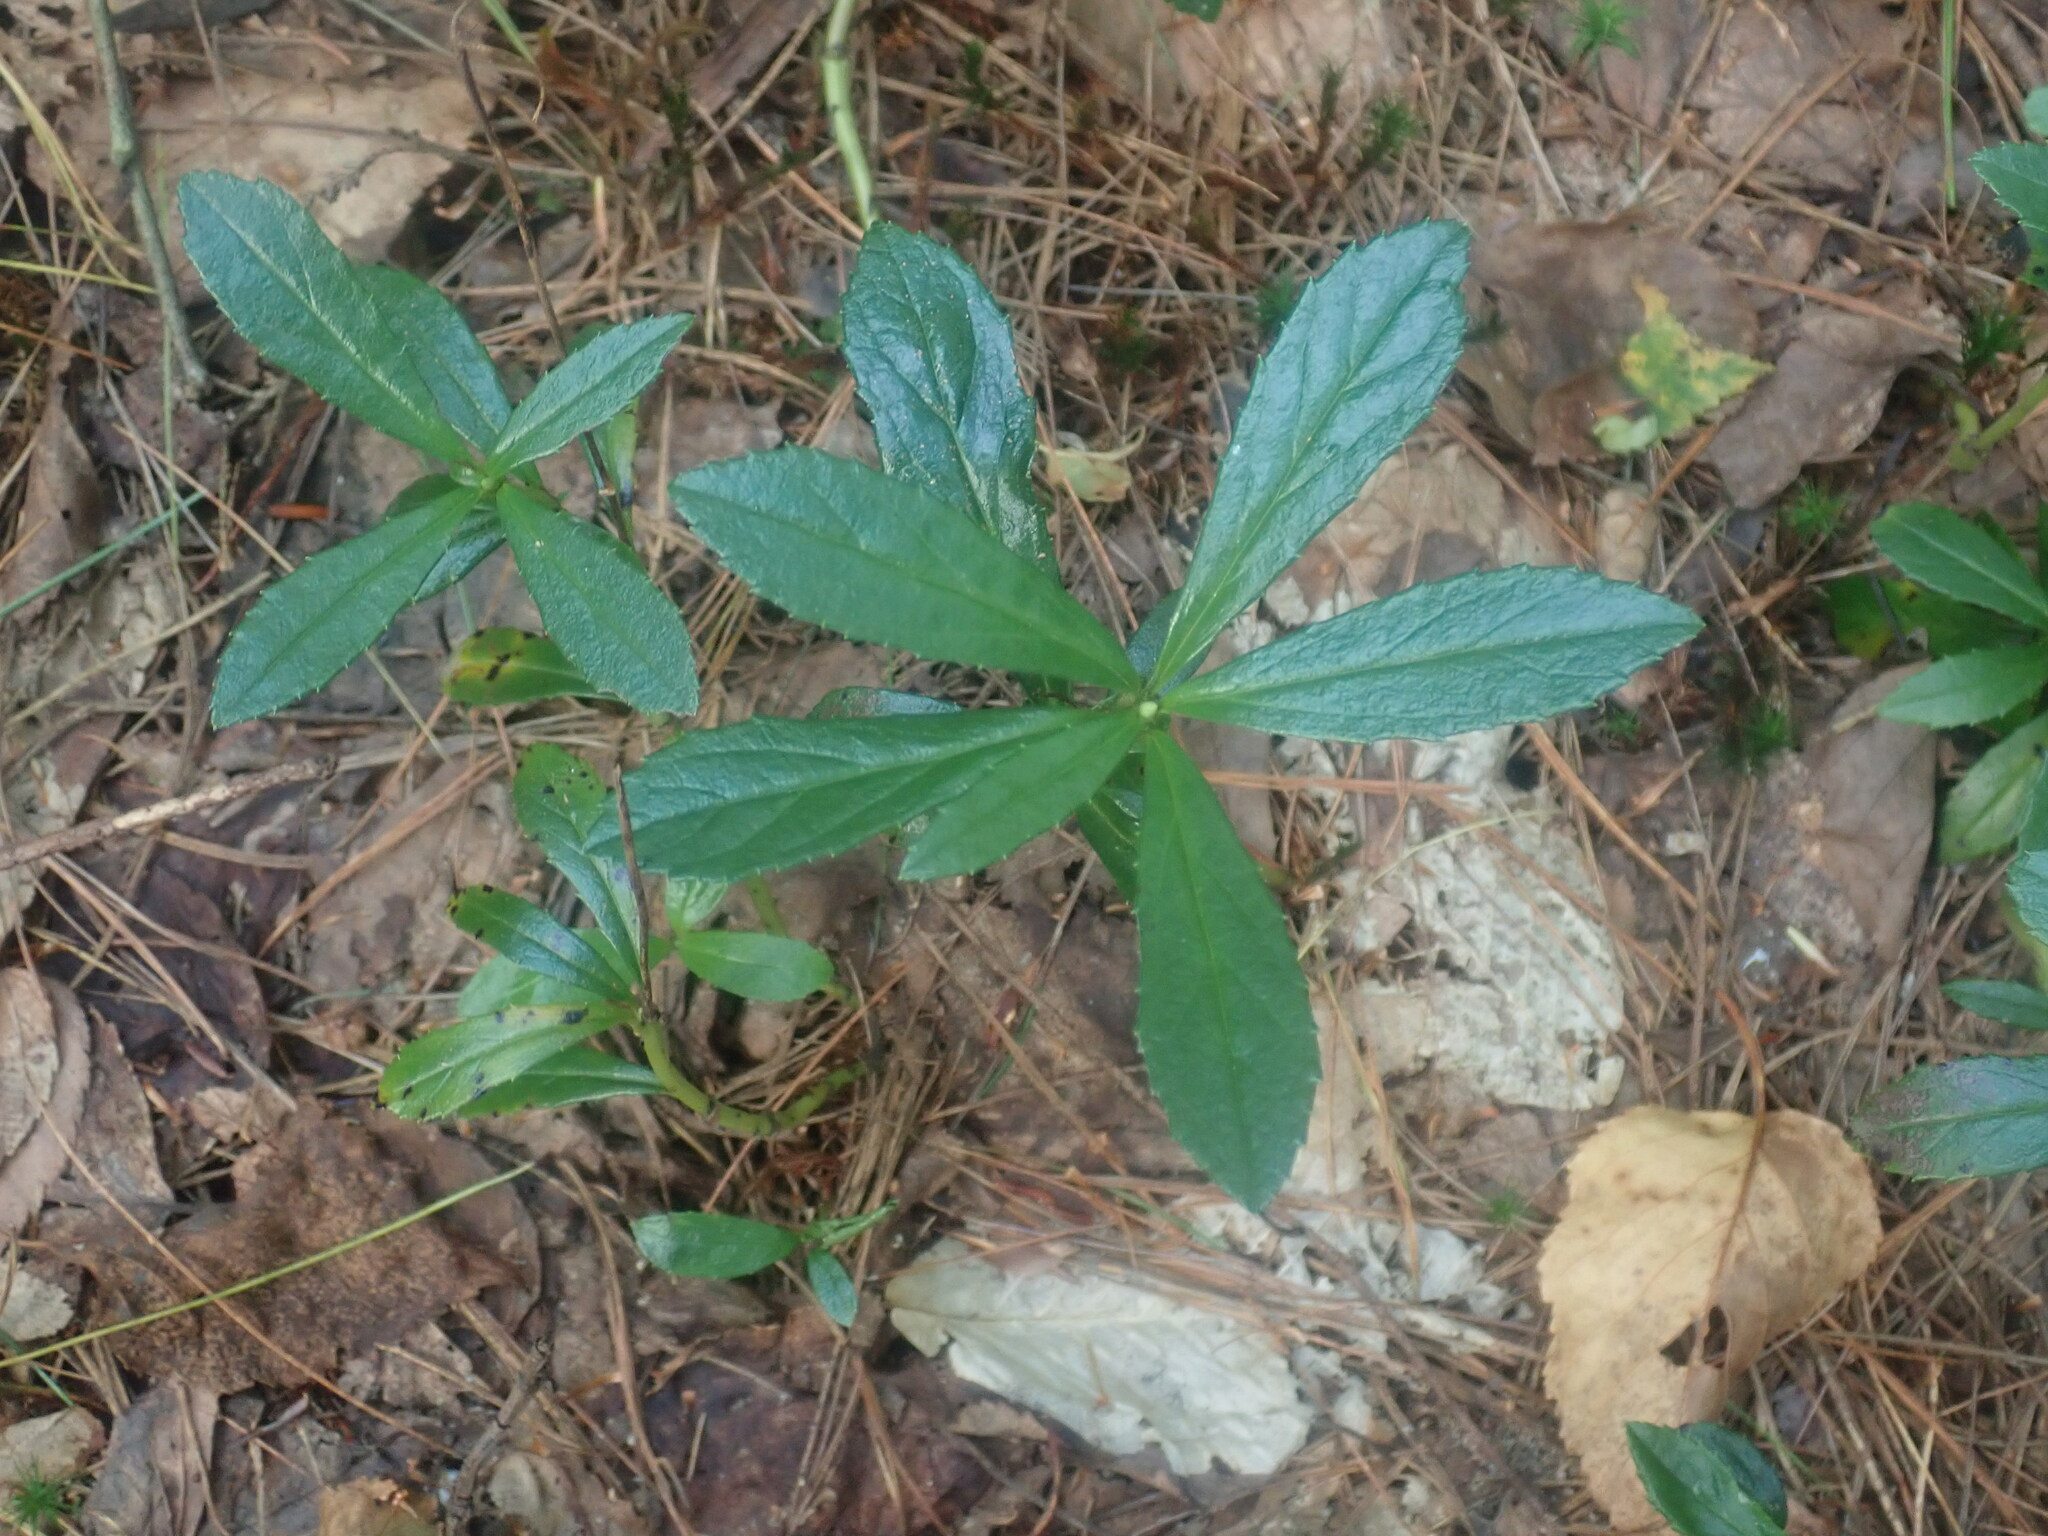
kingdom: Plantae
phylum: Tracheophyta
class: Magnoliopsida
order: Ericales
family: Ericaceae
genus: Chimaphila
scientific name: Chimaphila umbellata
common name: Pipsissewa
